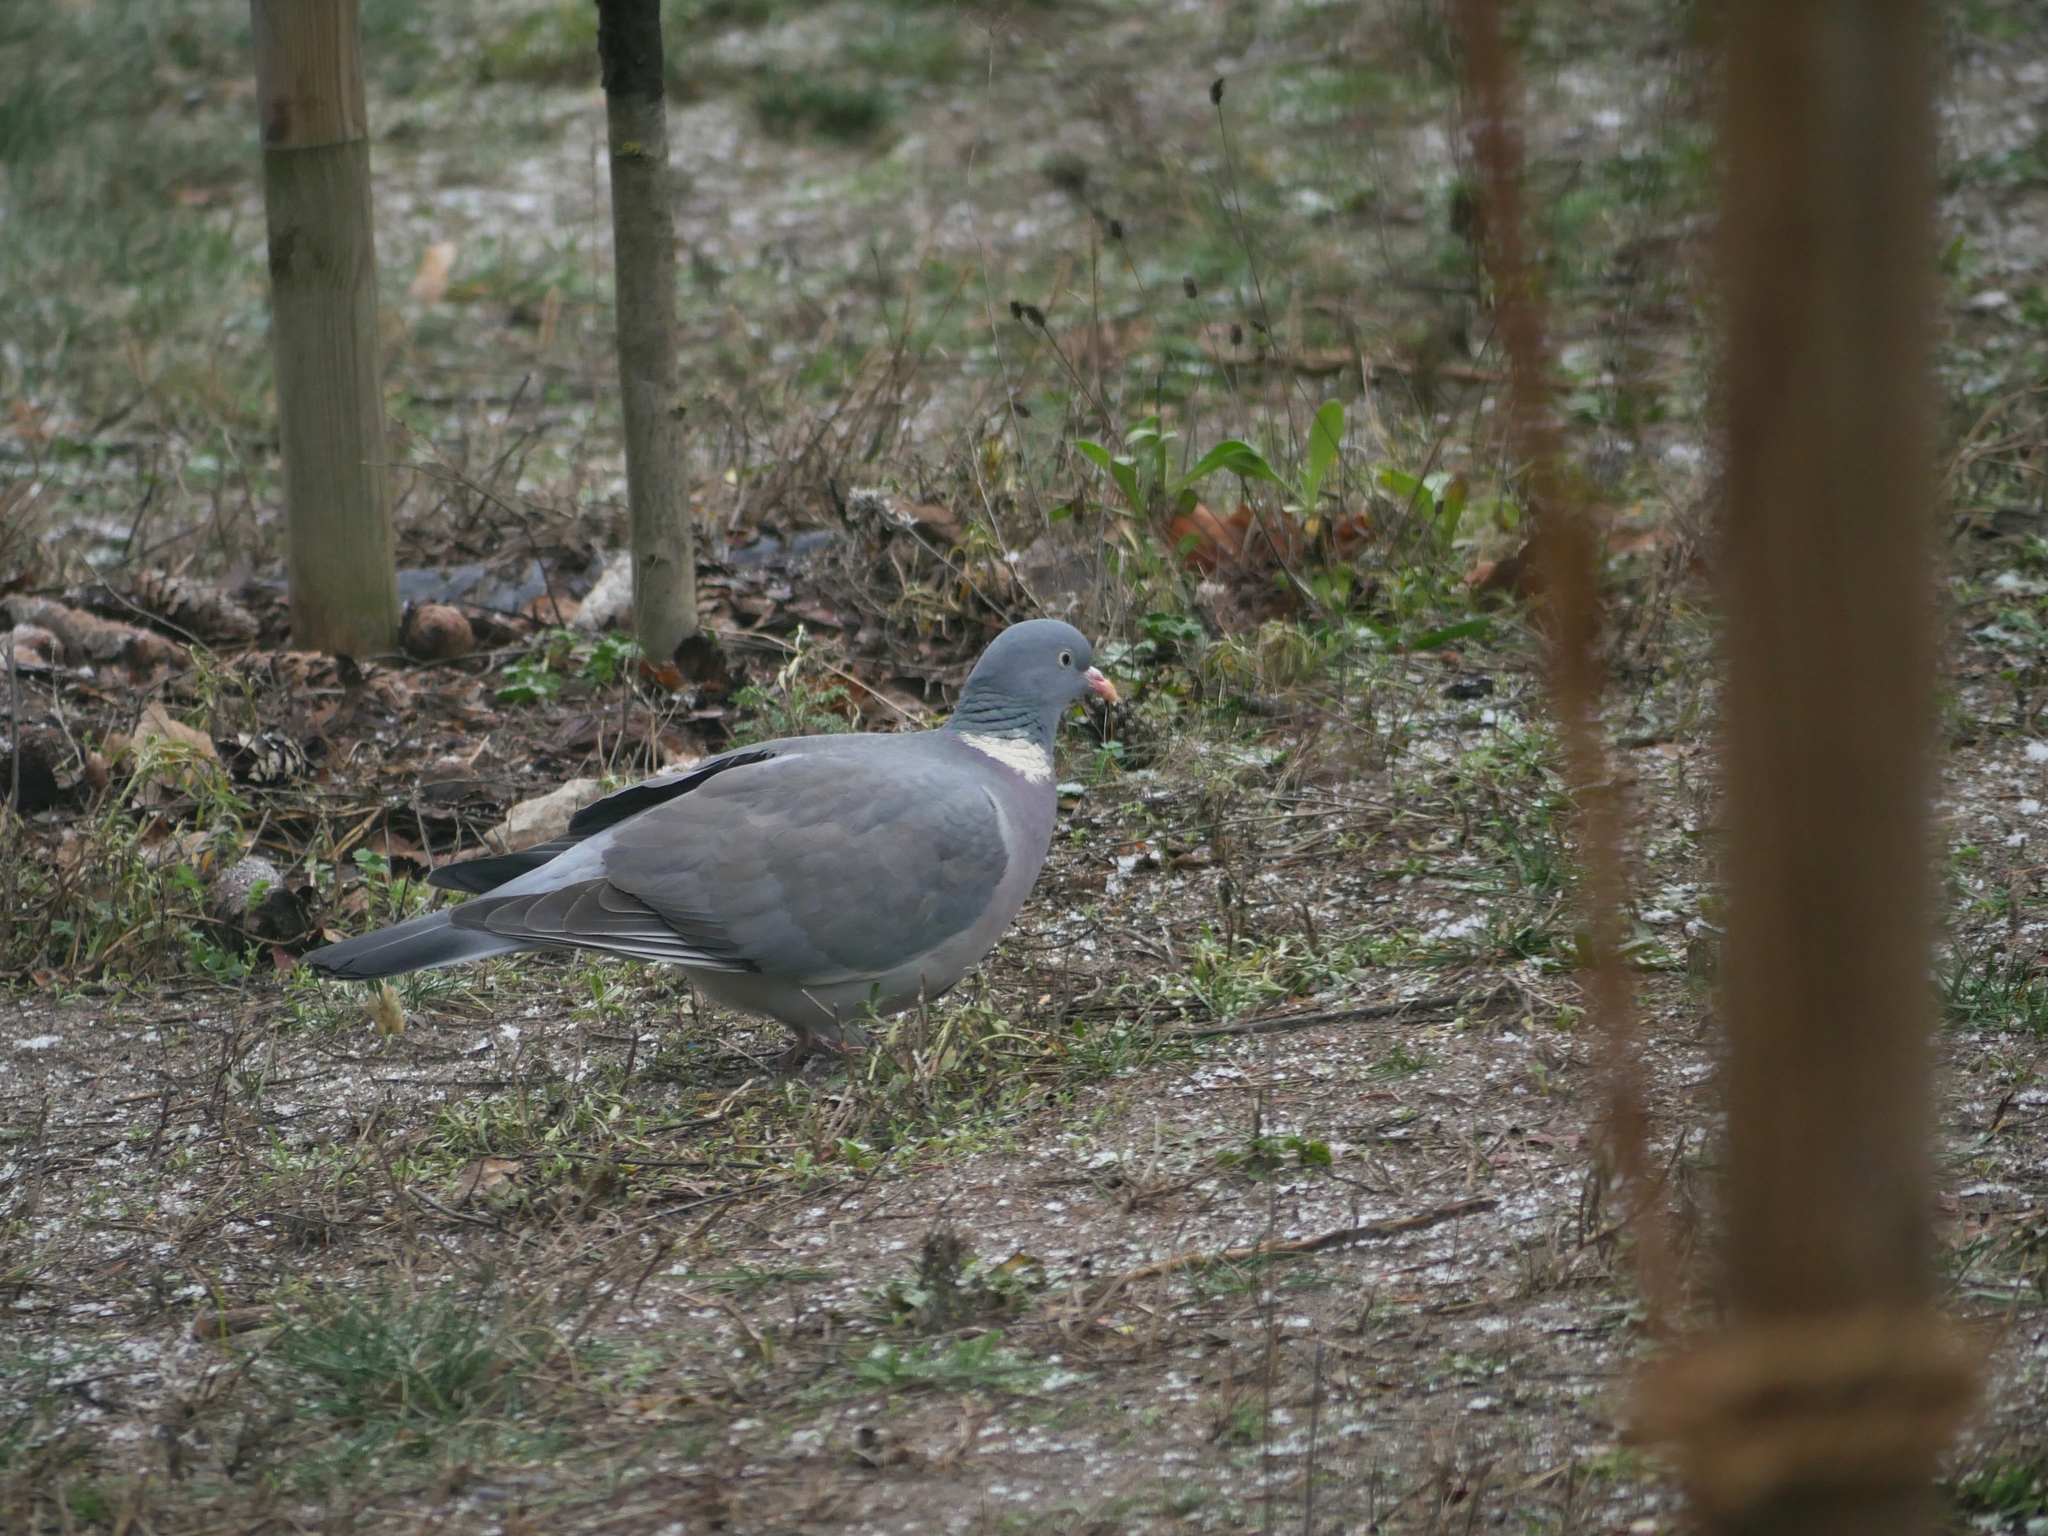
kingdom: Animalia
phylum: Chordata
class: Aves
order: Columbiformes
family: Columbidae
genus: Columba
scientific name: Columba palumbus
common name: Common wood pigeon
